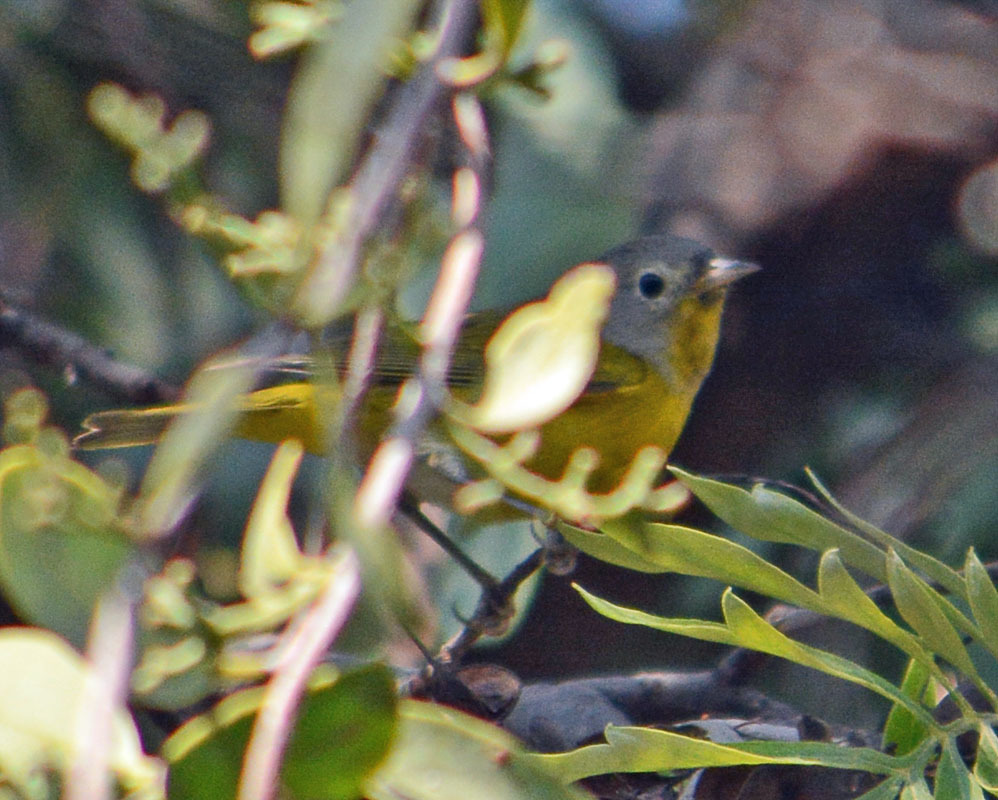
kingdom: Animalia
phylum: Chordata
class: Aves
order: Passeriformes
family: Parulidae
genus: Leiothlypis
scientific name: Leiothlypis ruficapilla
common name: Nashville warbler
